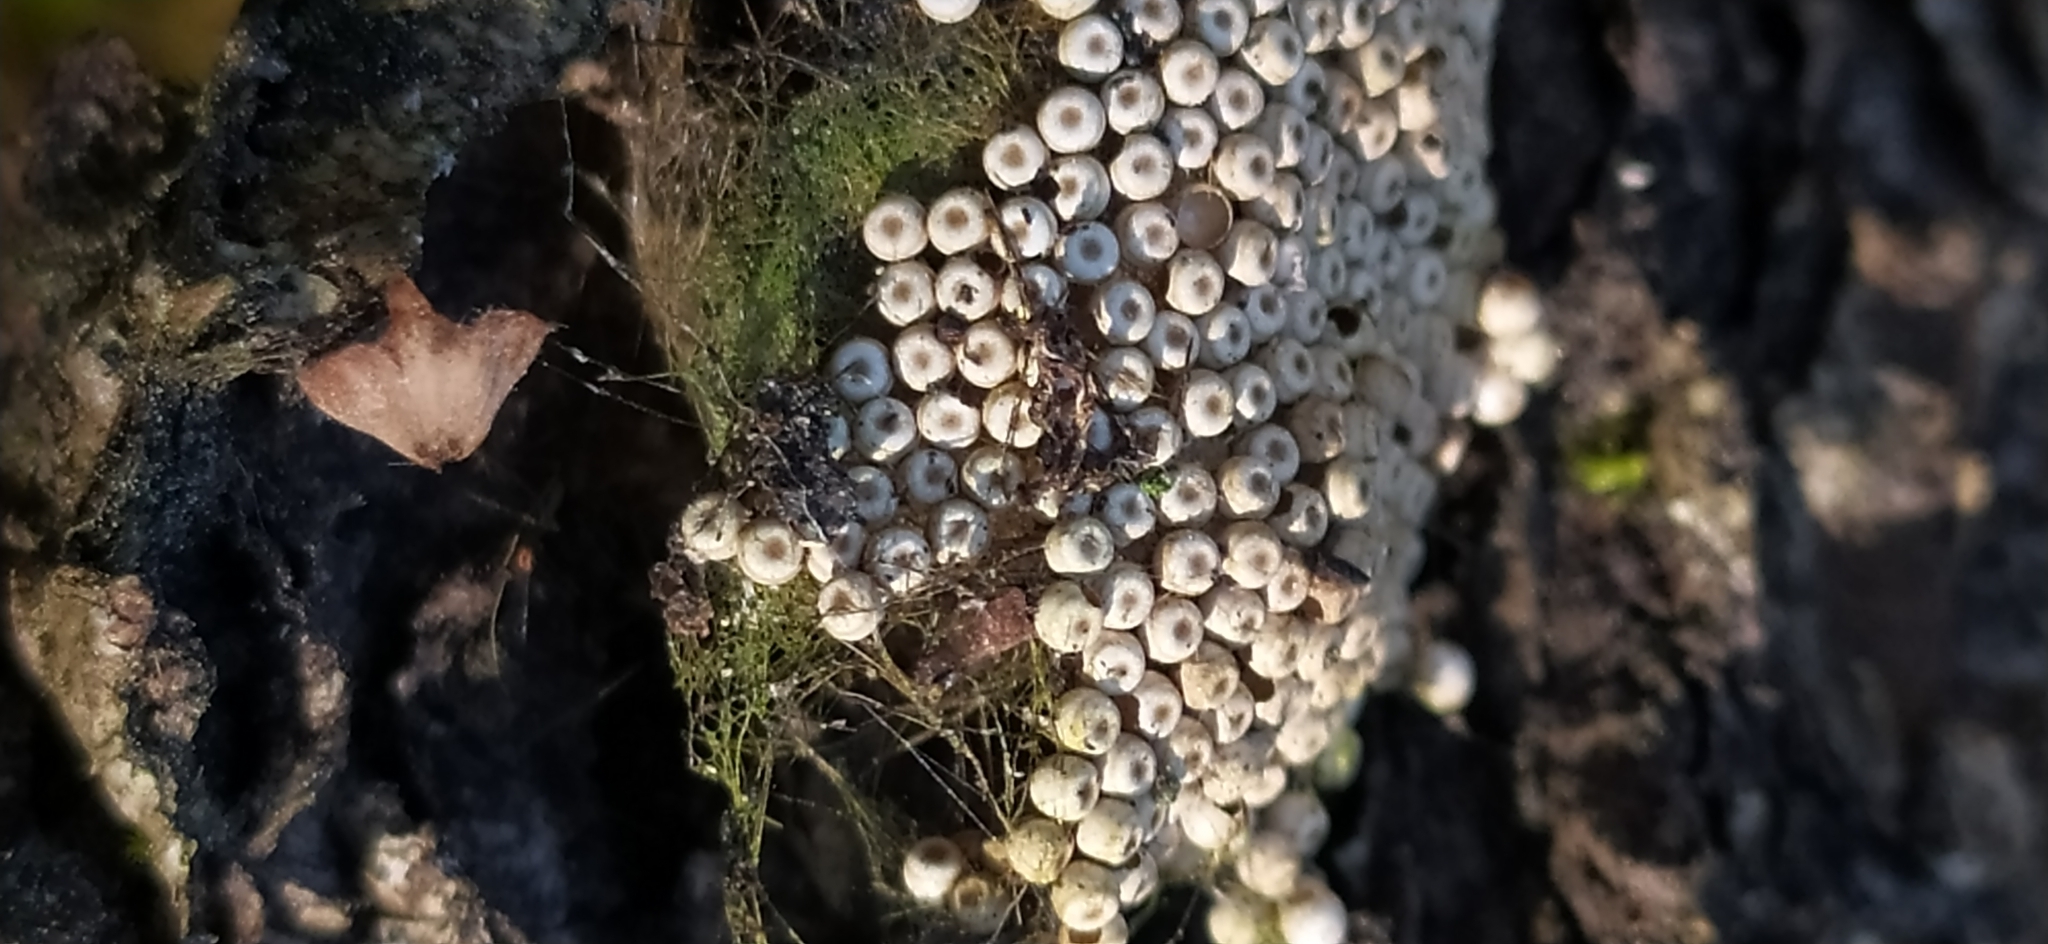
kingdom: Animalia
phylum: Arthropoda
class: Insecta
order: Lepidoptera
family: Erebidae
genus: Orgyia
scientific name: Orgyia antiqua
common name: Vapourer
